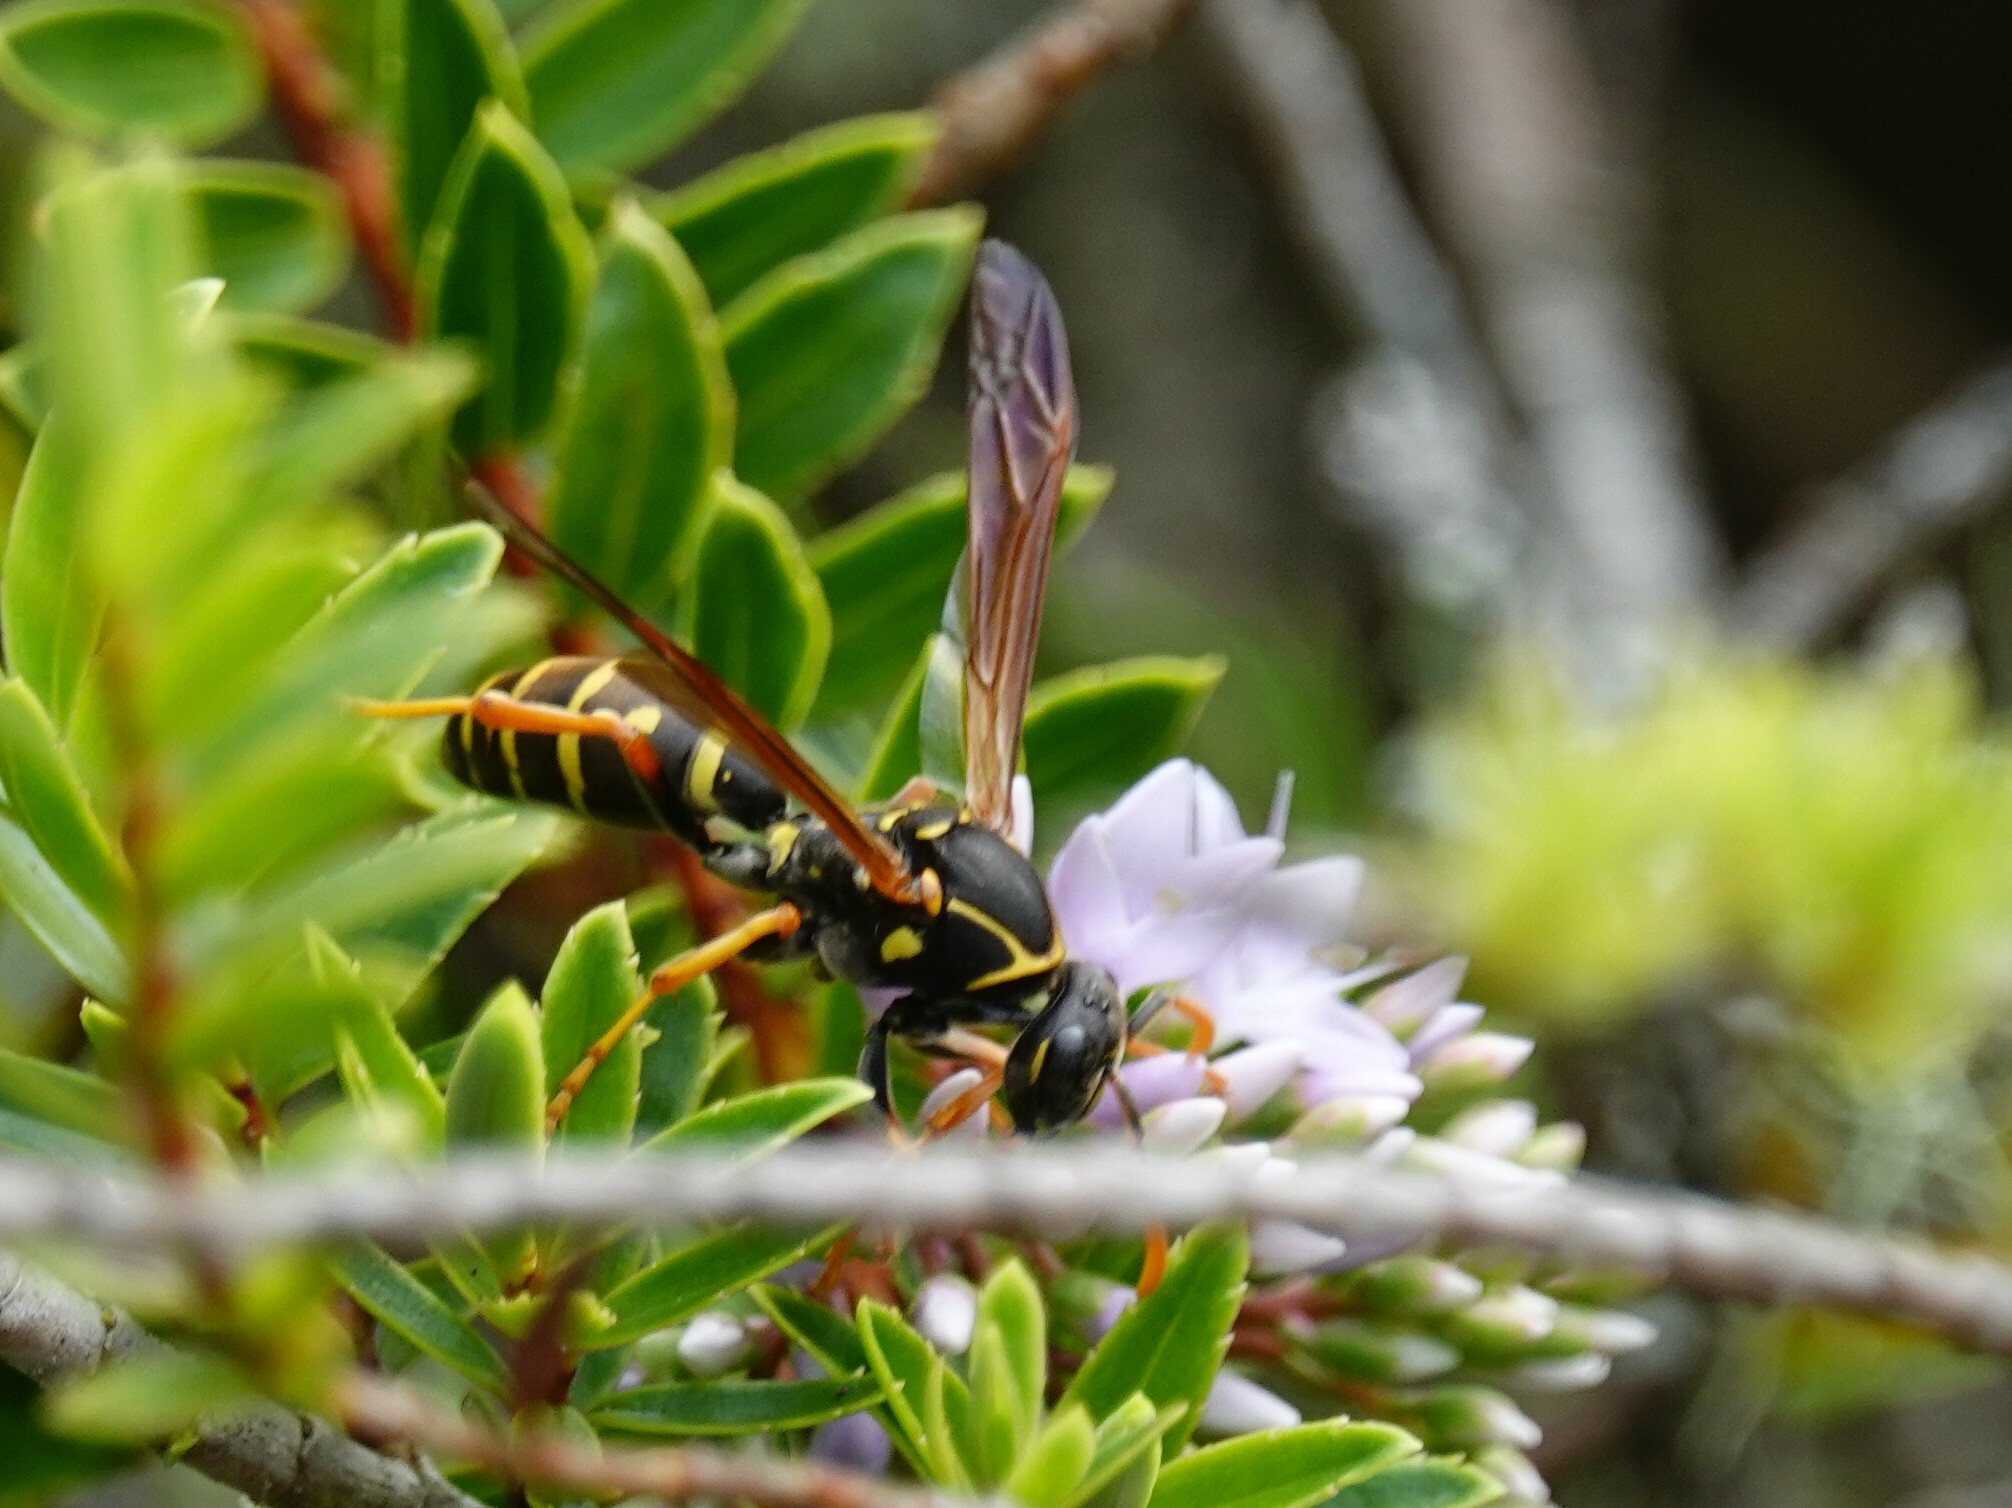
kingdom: Animalia
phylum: Arthropoda
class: Insecta
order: Hymenoptera
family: Eumenidae
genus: Polistes
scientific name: Polistes chinensis
